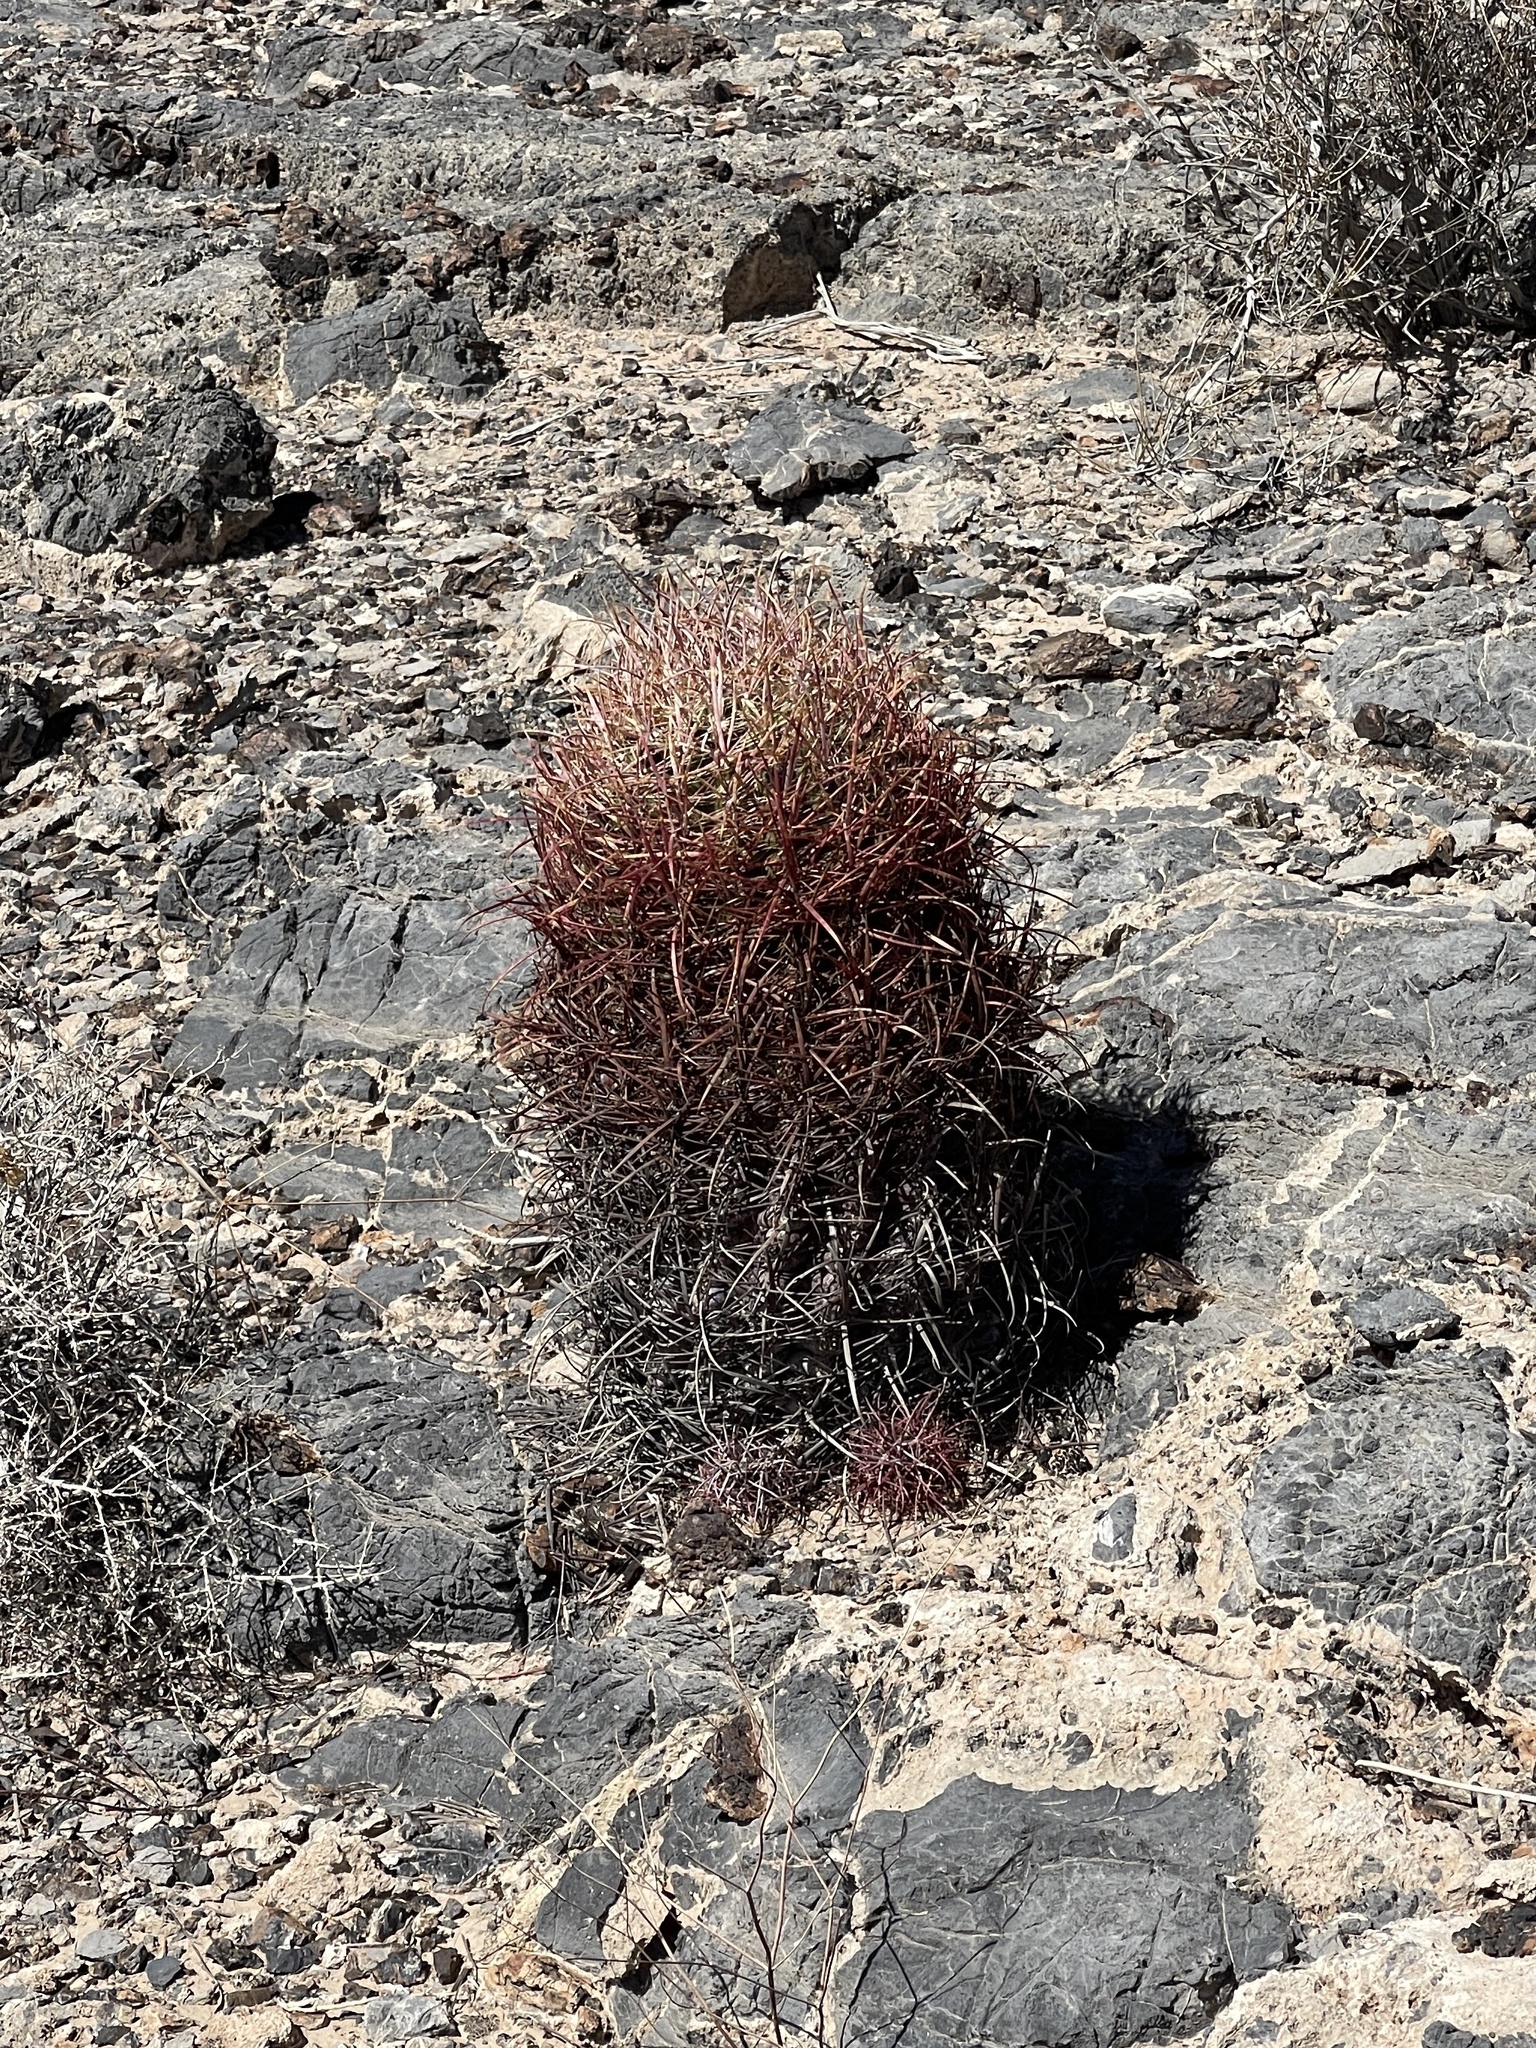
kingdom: Plantae
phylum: Tracheophyta
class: Magnoliopsida
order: Caryophyllales
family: Cactaceae
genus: Ferocactus
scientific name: Ferocactus cylindraceus
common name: California barrel cactus
